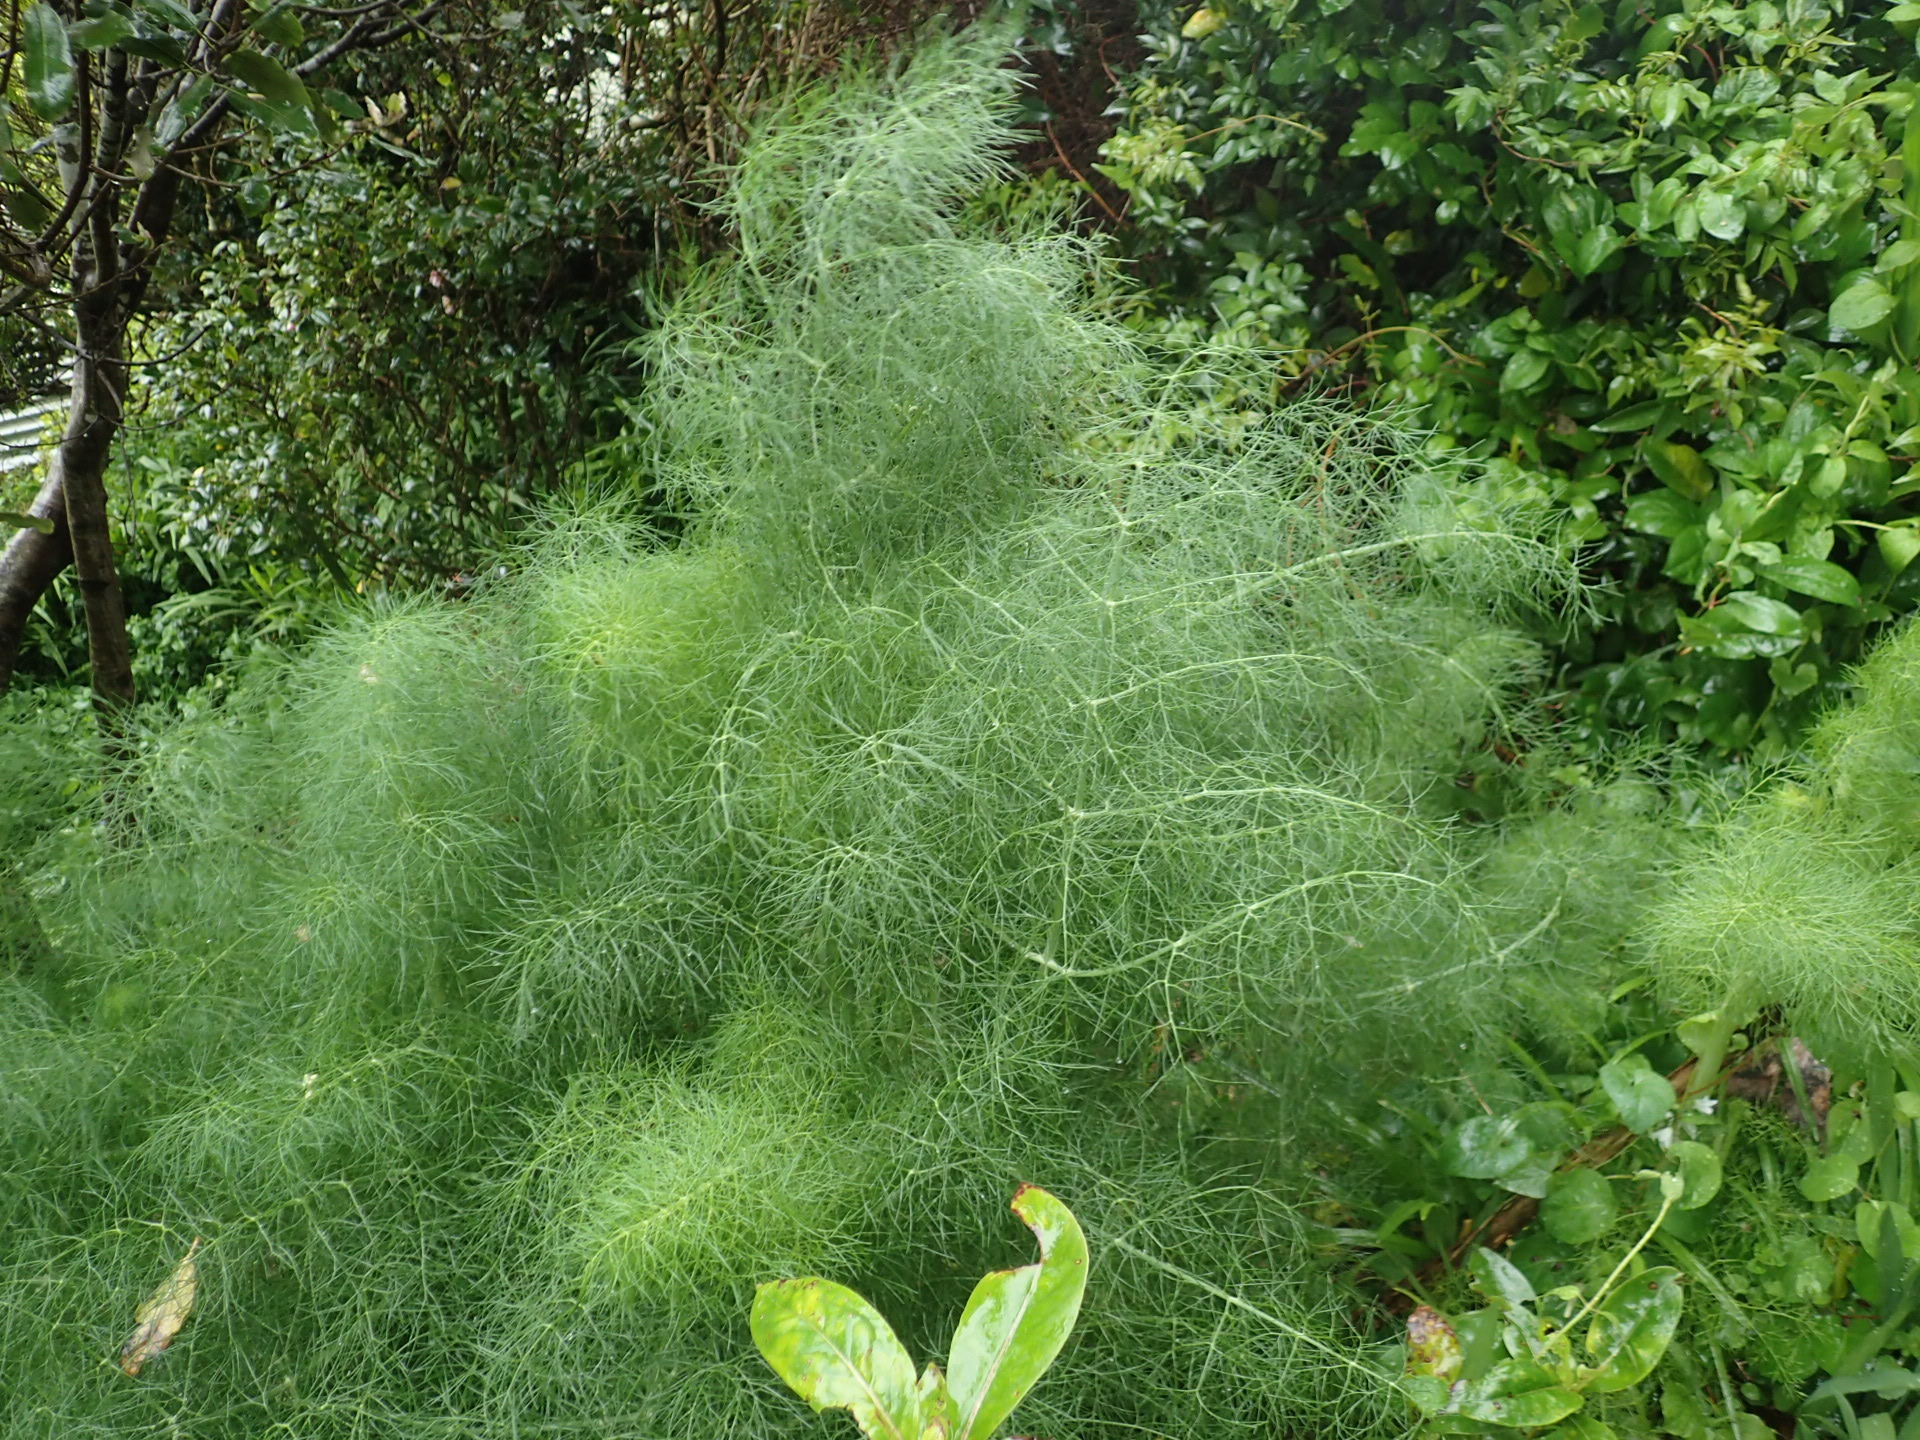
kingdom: Plantae
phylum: Tracheophyta
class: Magnoliopsida
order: Apiales
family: Apiaceae
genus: Foeniculum
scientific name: Foeniculum vulgare
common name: Fennel
